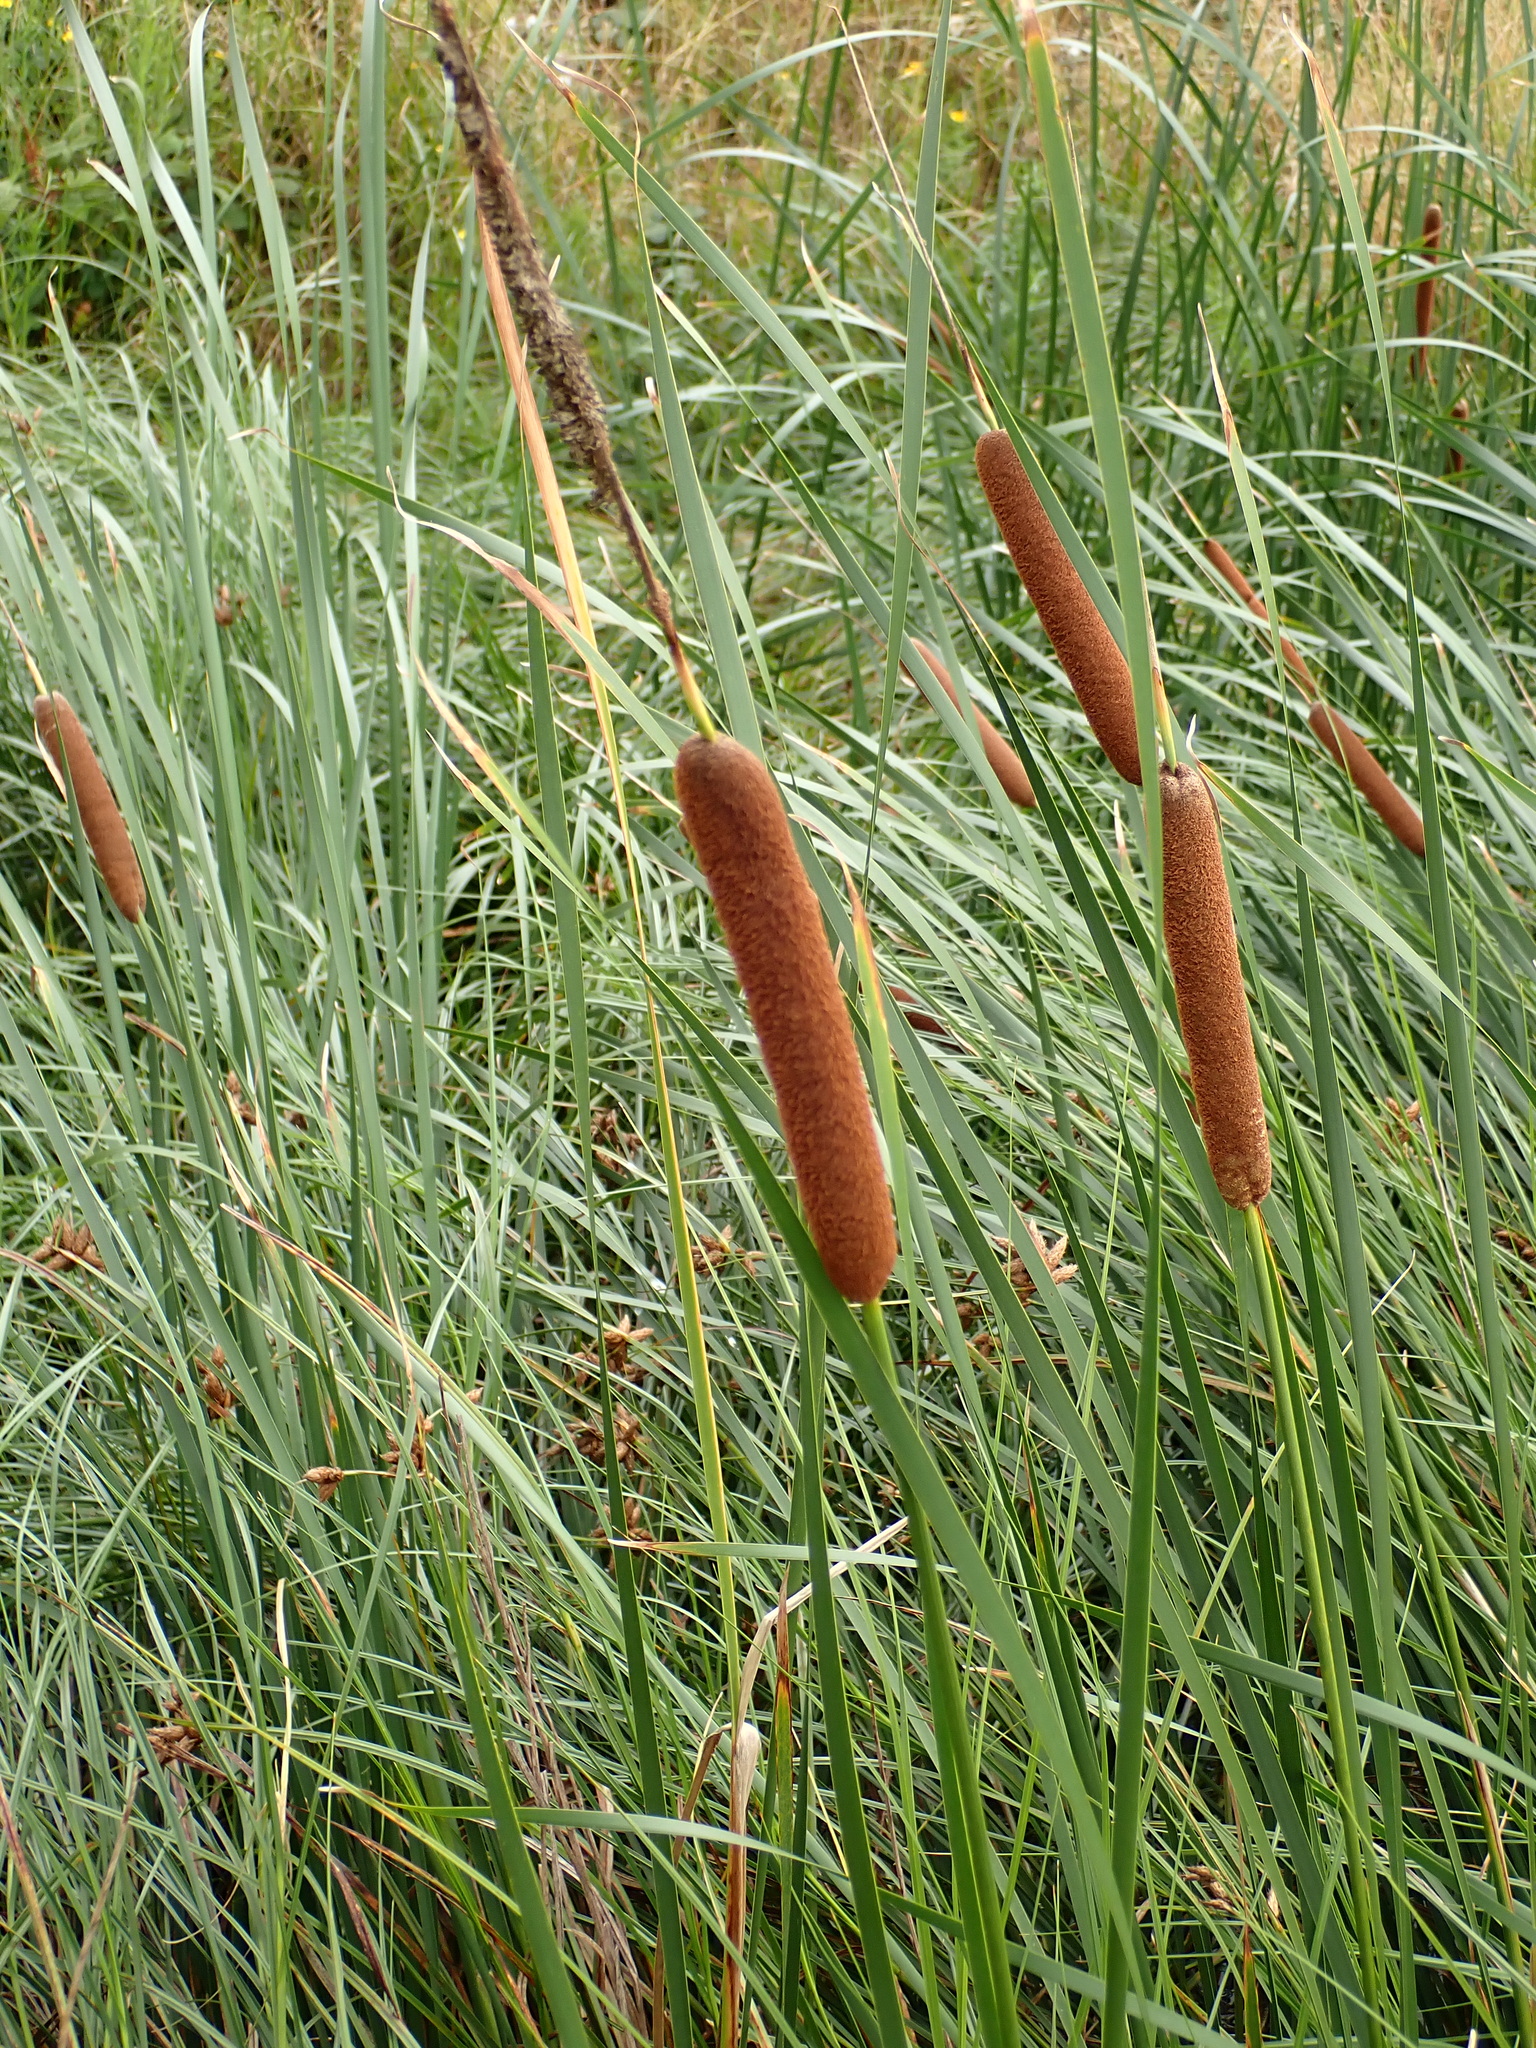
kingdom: Plantae
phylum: Tracheophyta
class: Liliopsida
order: Poales
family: Typhaceae
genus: Typha
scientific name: Typha angustifolia
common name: Lesser bulrush
